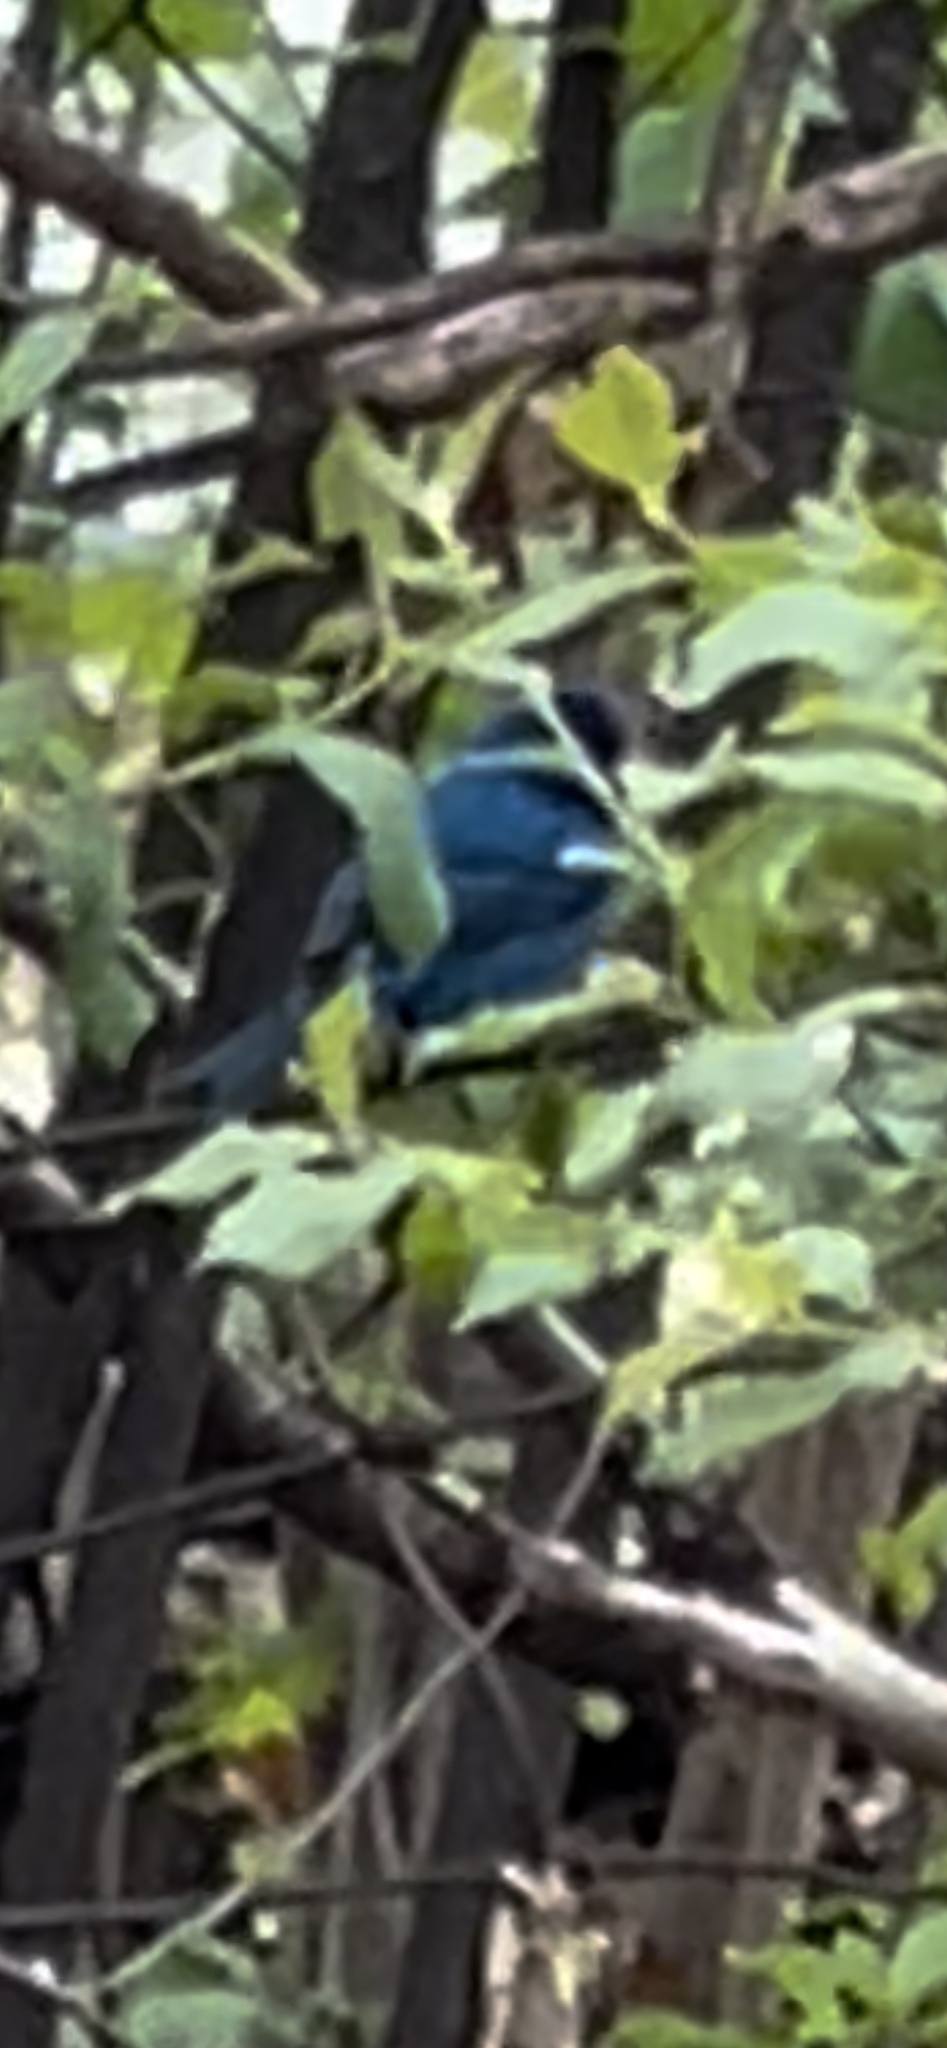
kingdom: Animalia
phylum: Chordata
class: Aves
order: Passeriformes
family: Cardinalidae
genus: Passerina
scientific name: Passerina cyanea
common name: Indigo bunting
